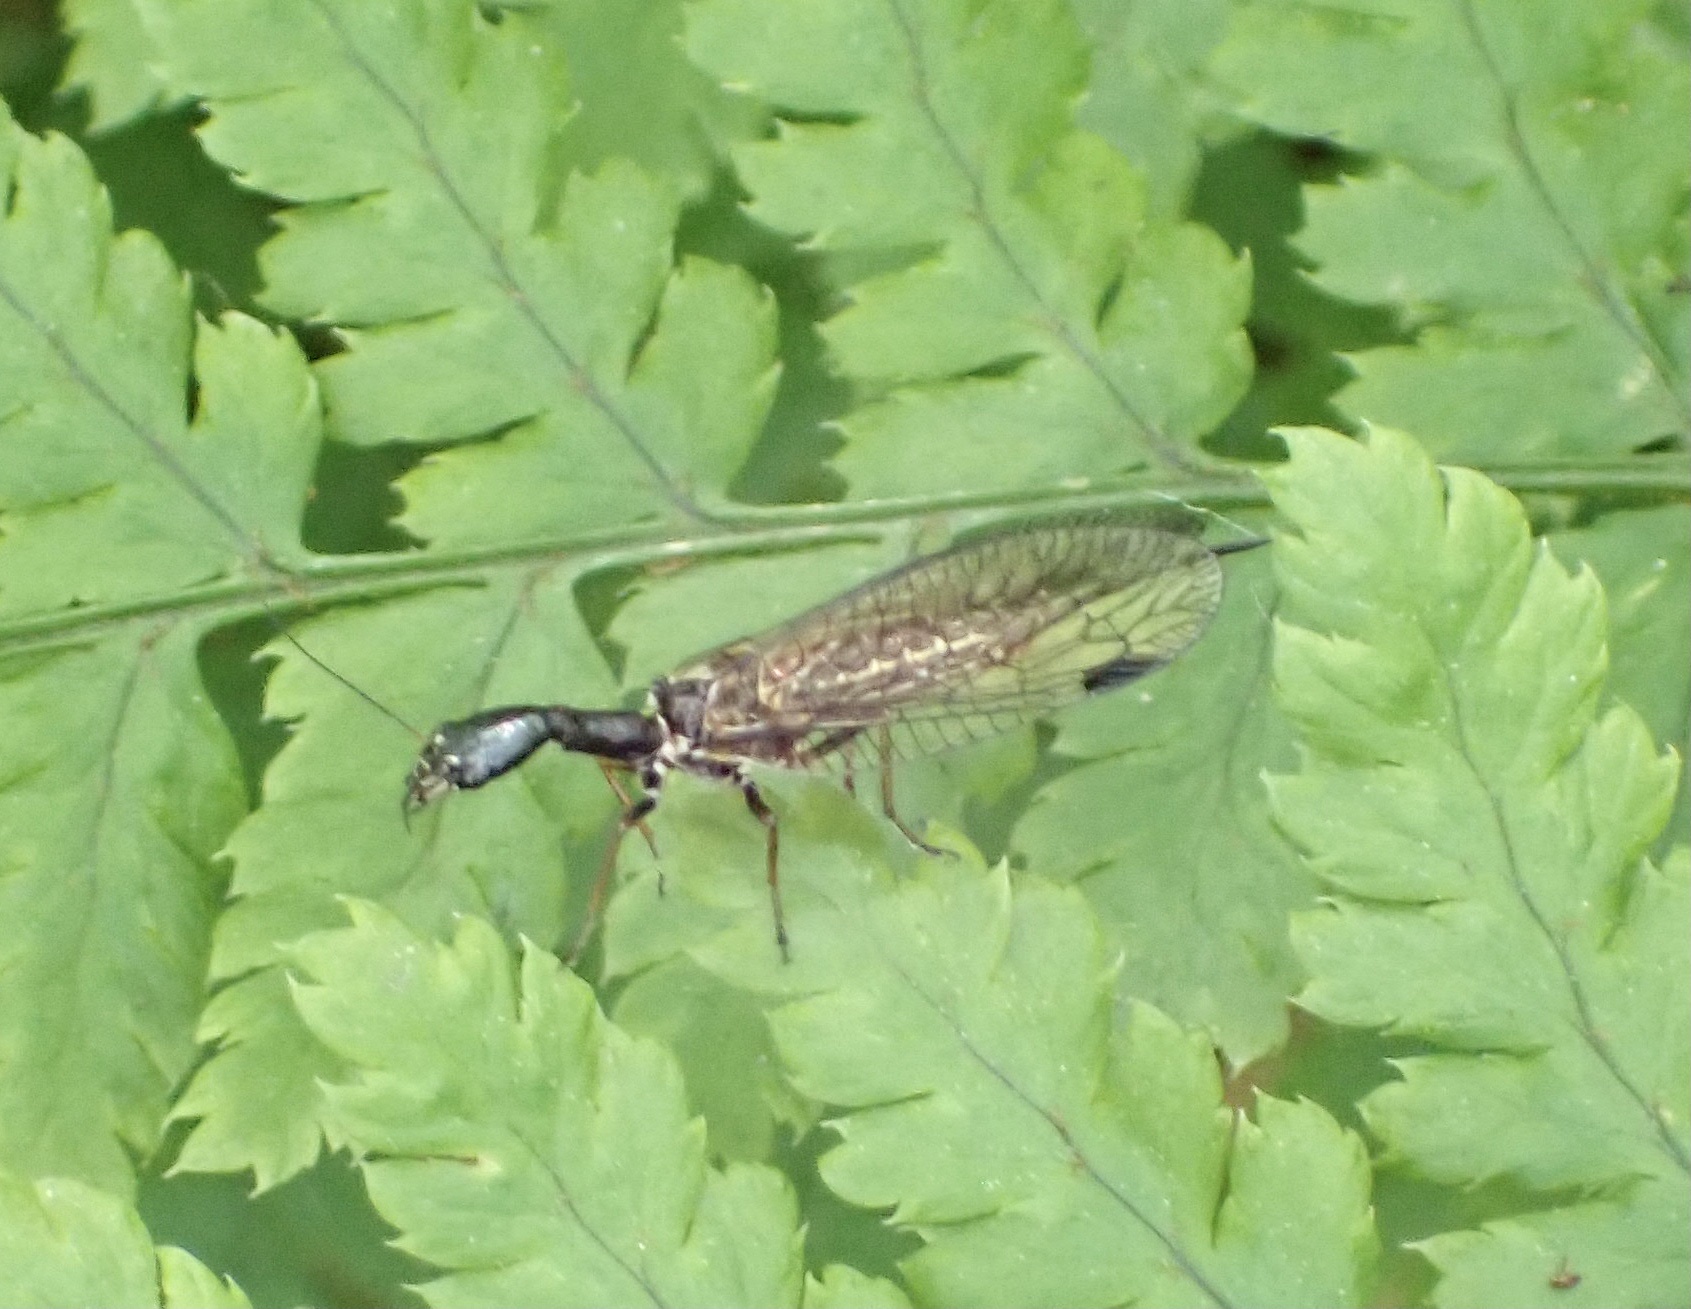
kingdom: Animalia
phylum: Arthropoda
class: Insecta
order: Raphidioptera
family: Raphidiidae
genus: Phaeostigma
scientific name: Phaeostigma notatum
